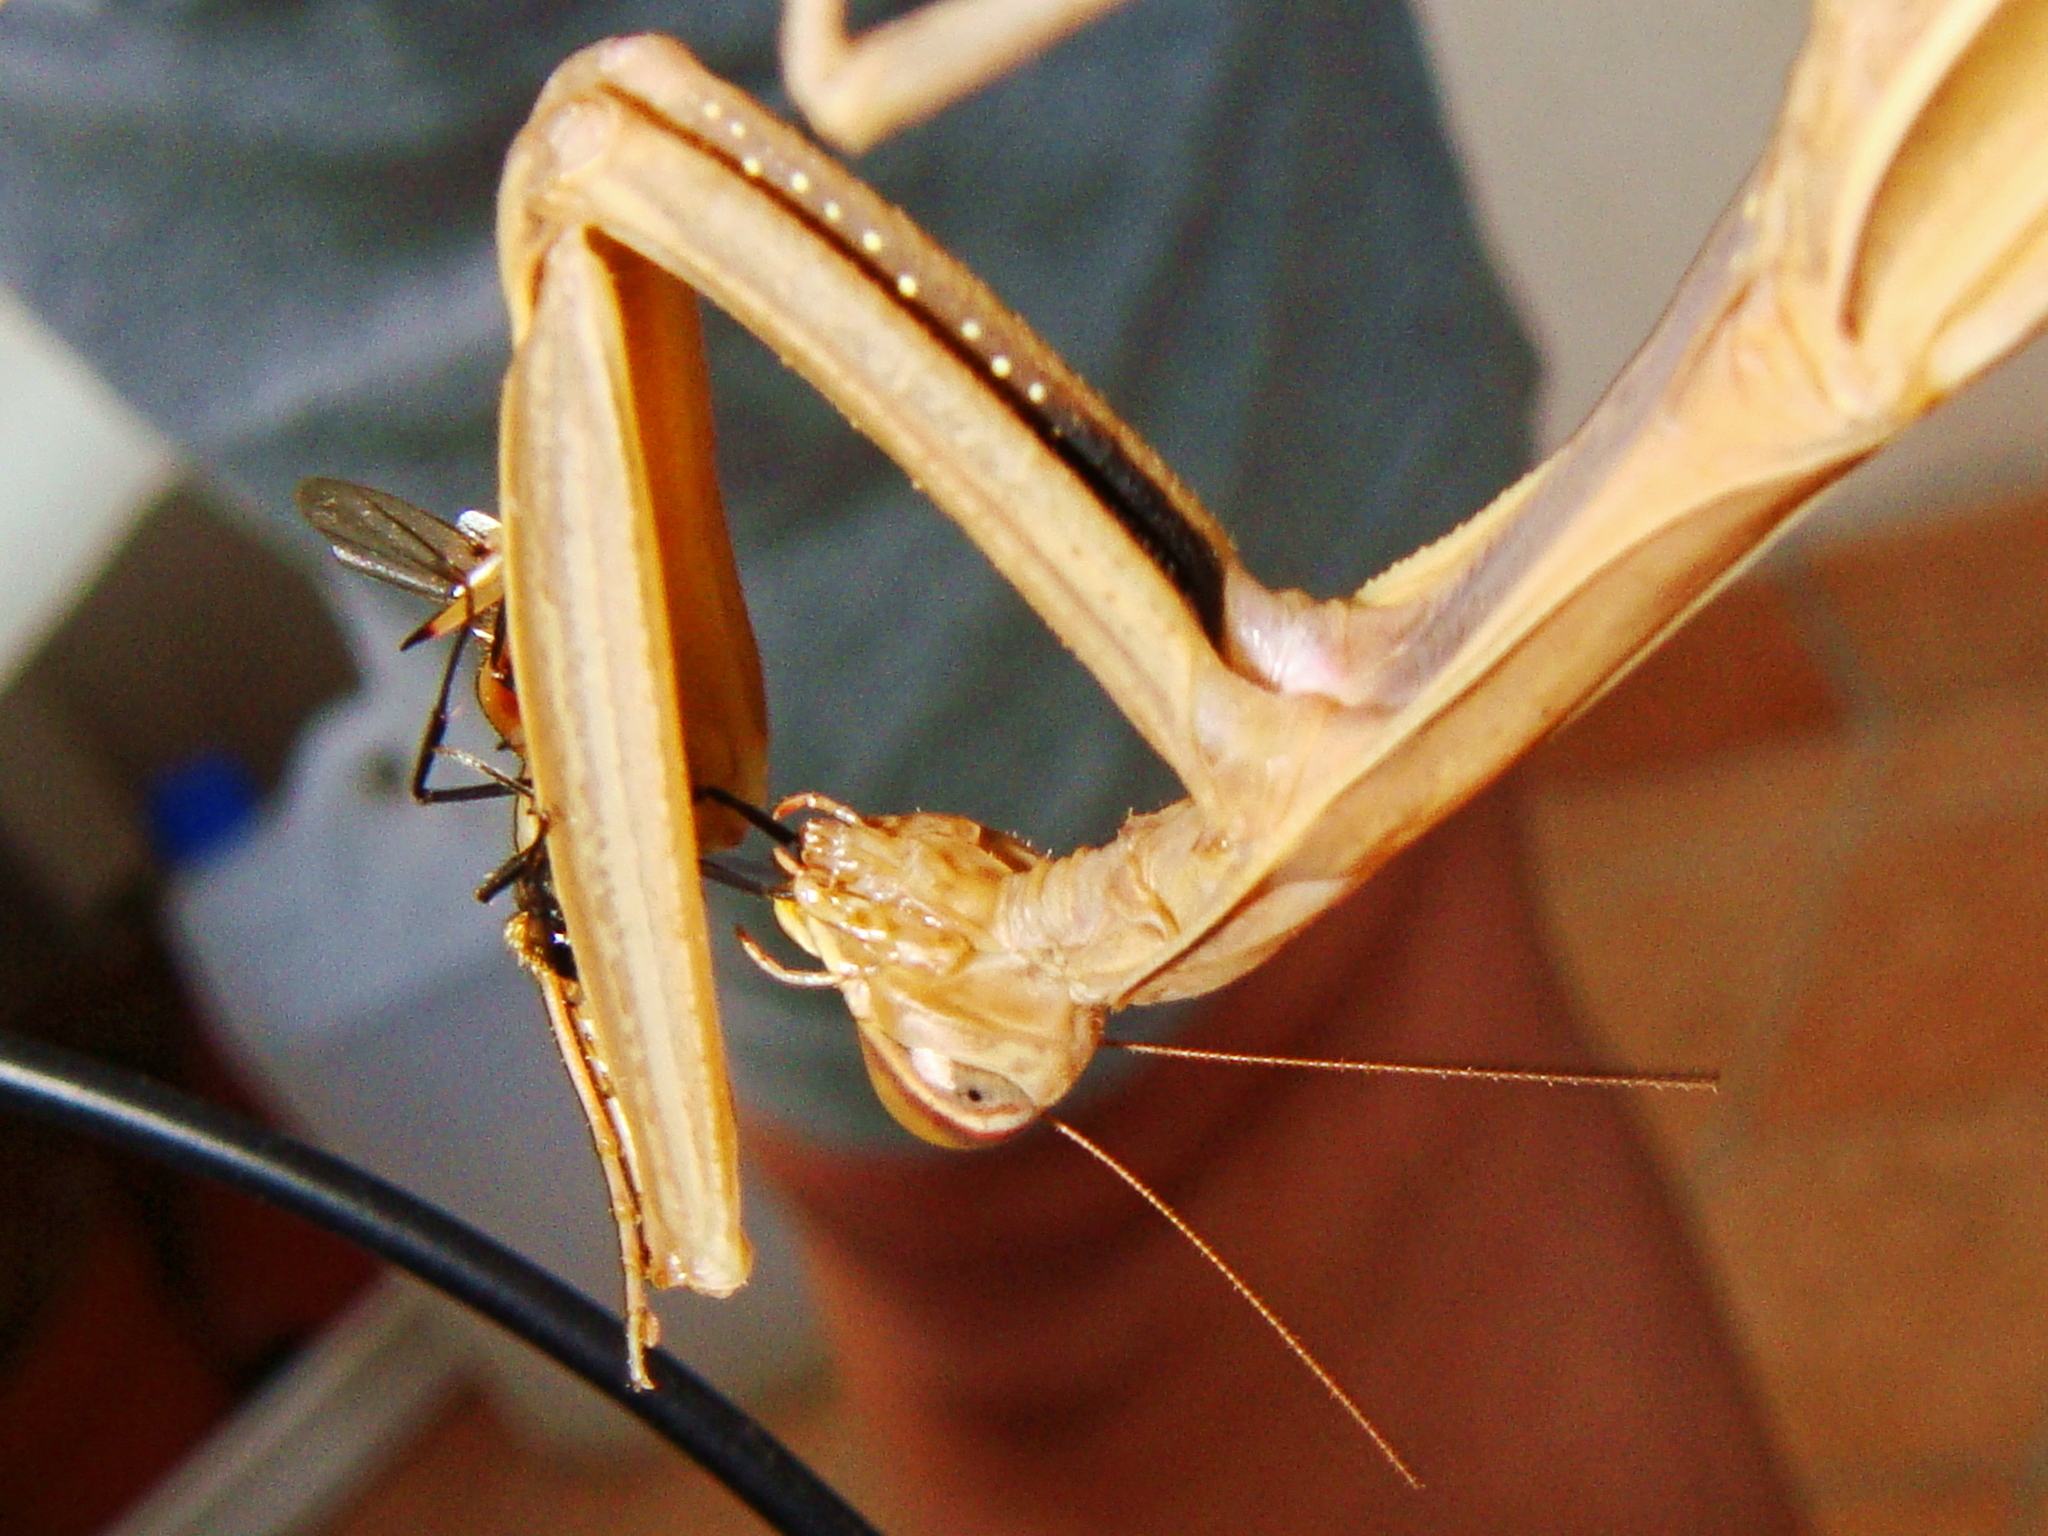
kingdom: Animalia
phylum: Arthropoda
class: Insecta
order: Mantodea
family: Mantidae
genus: Mantis
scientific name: Mantis religiosa
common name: Praying mantis
